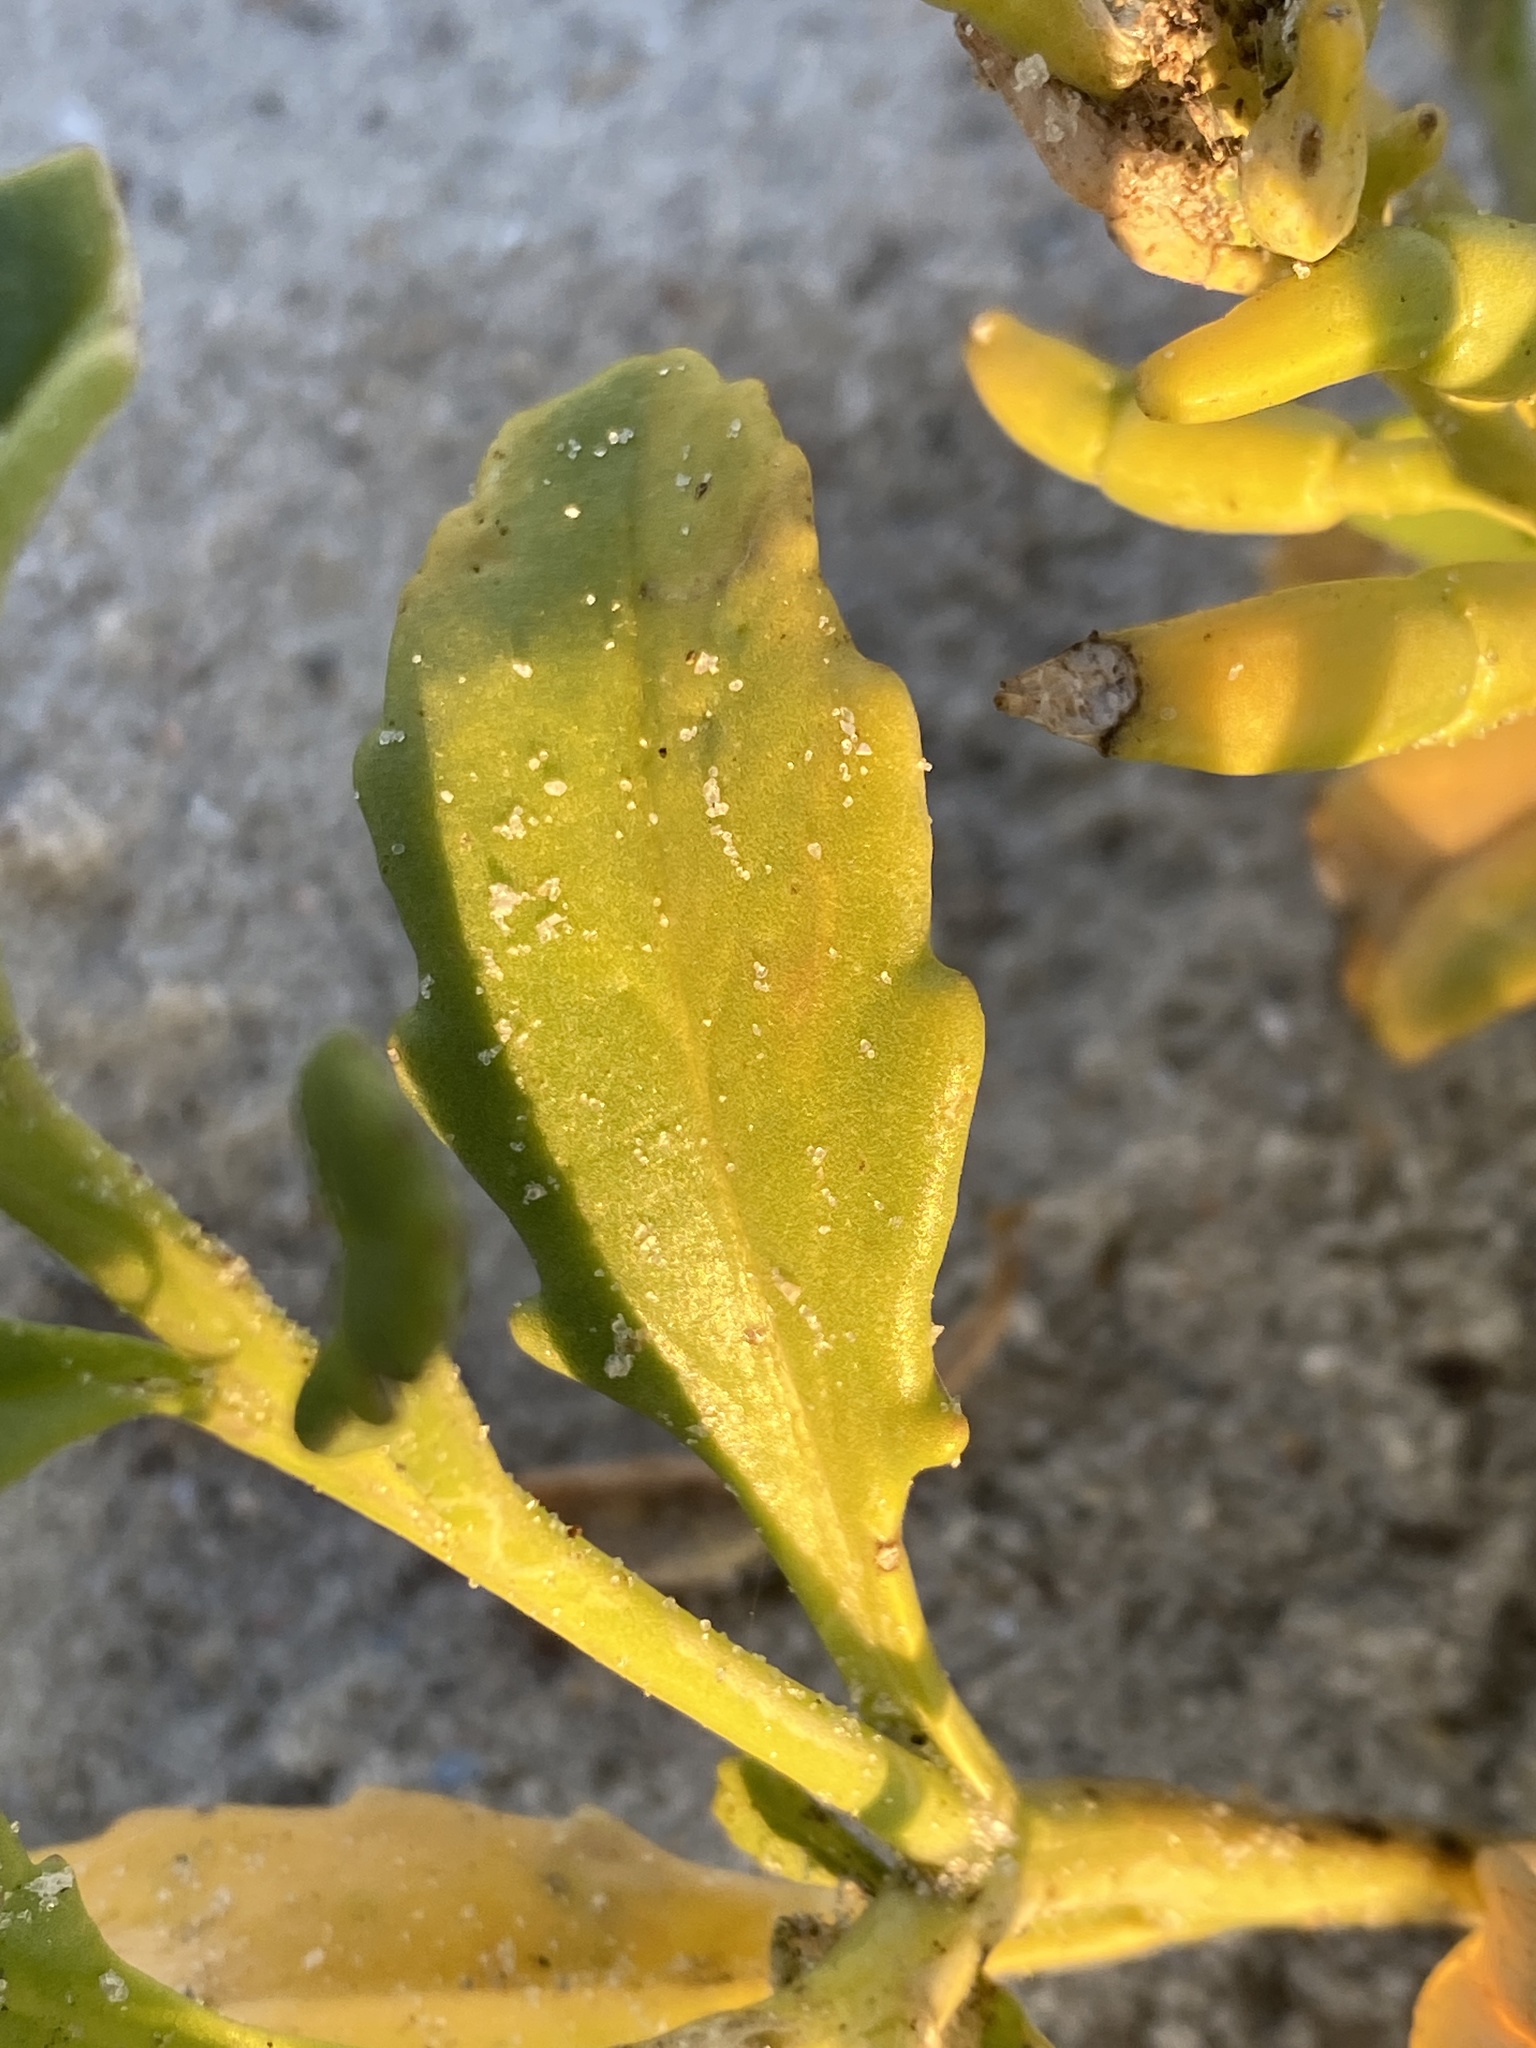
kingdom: Plantae
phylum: Tracheophyta
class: Magnoliopsida
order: Brassicales
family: Brassicaceae
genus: Cakile
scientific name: Cakile edentula
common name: American sea rocket
